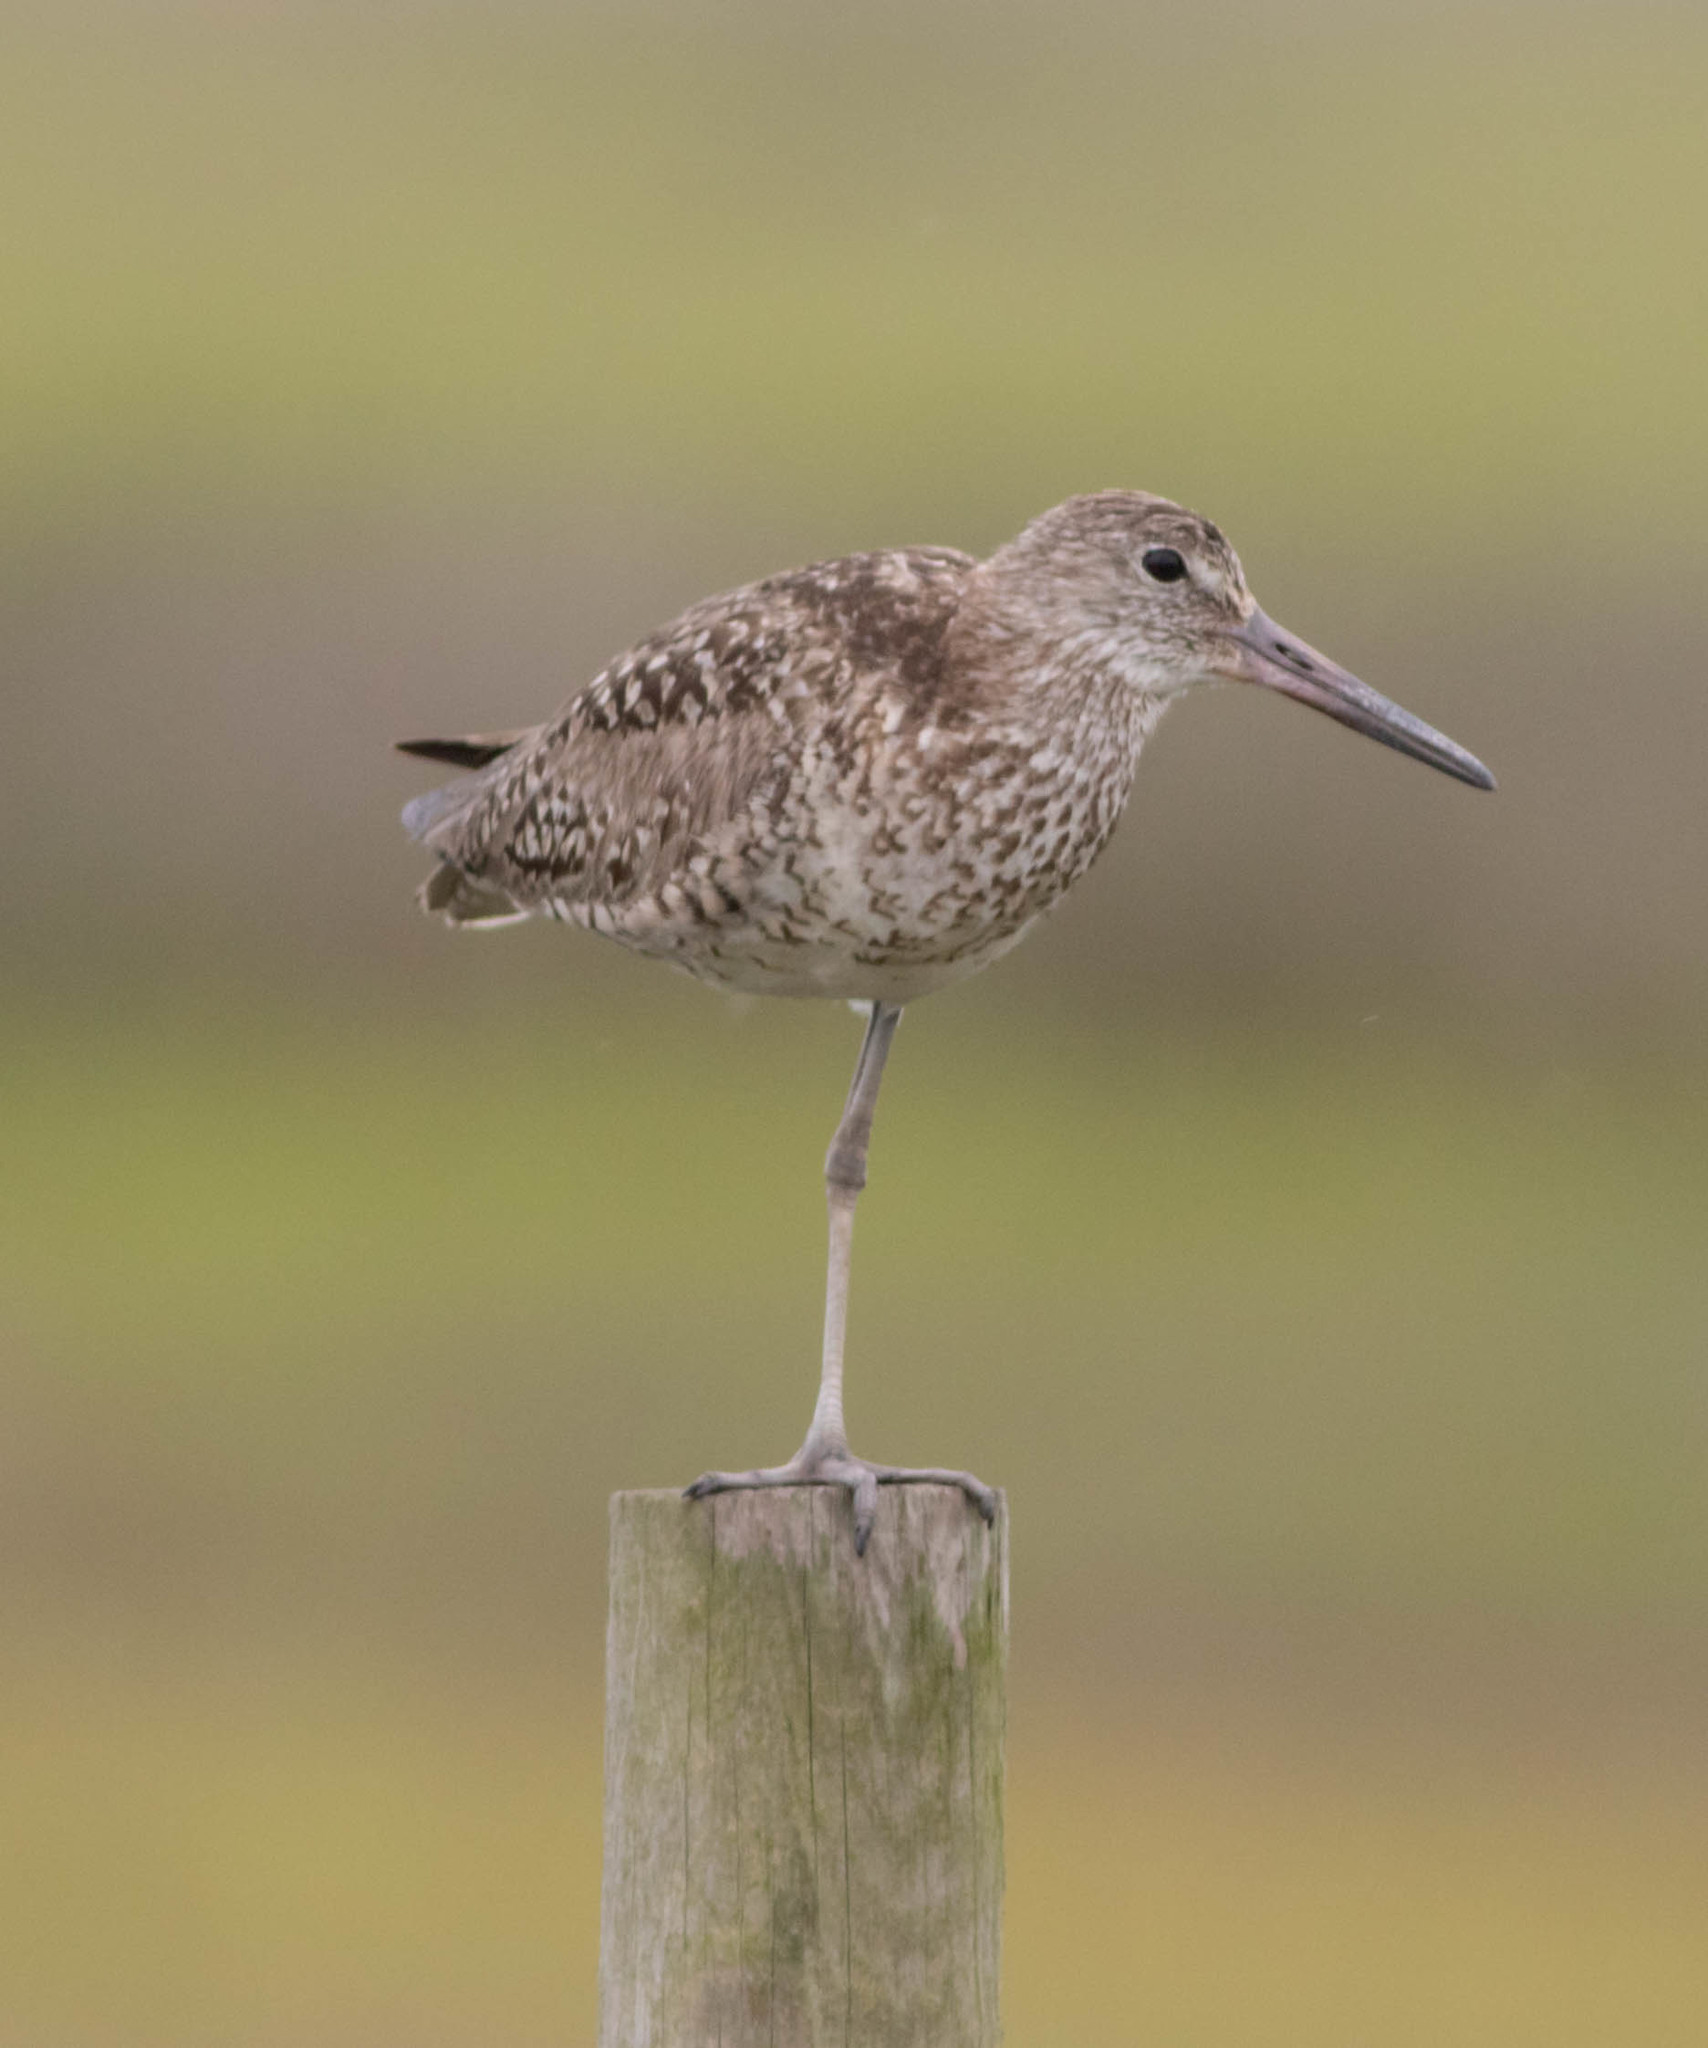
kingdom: Animalia
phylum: Chordata
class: Aves
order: Charadriiformes
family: Scolopacidae
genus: Tringa
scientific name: Tringa semipalmata
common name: Willet
